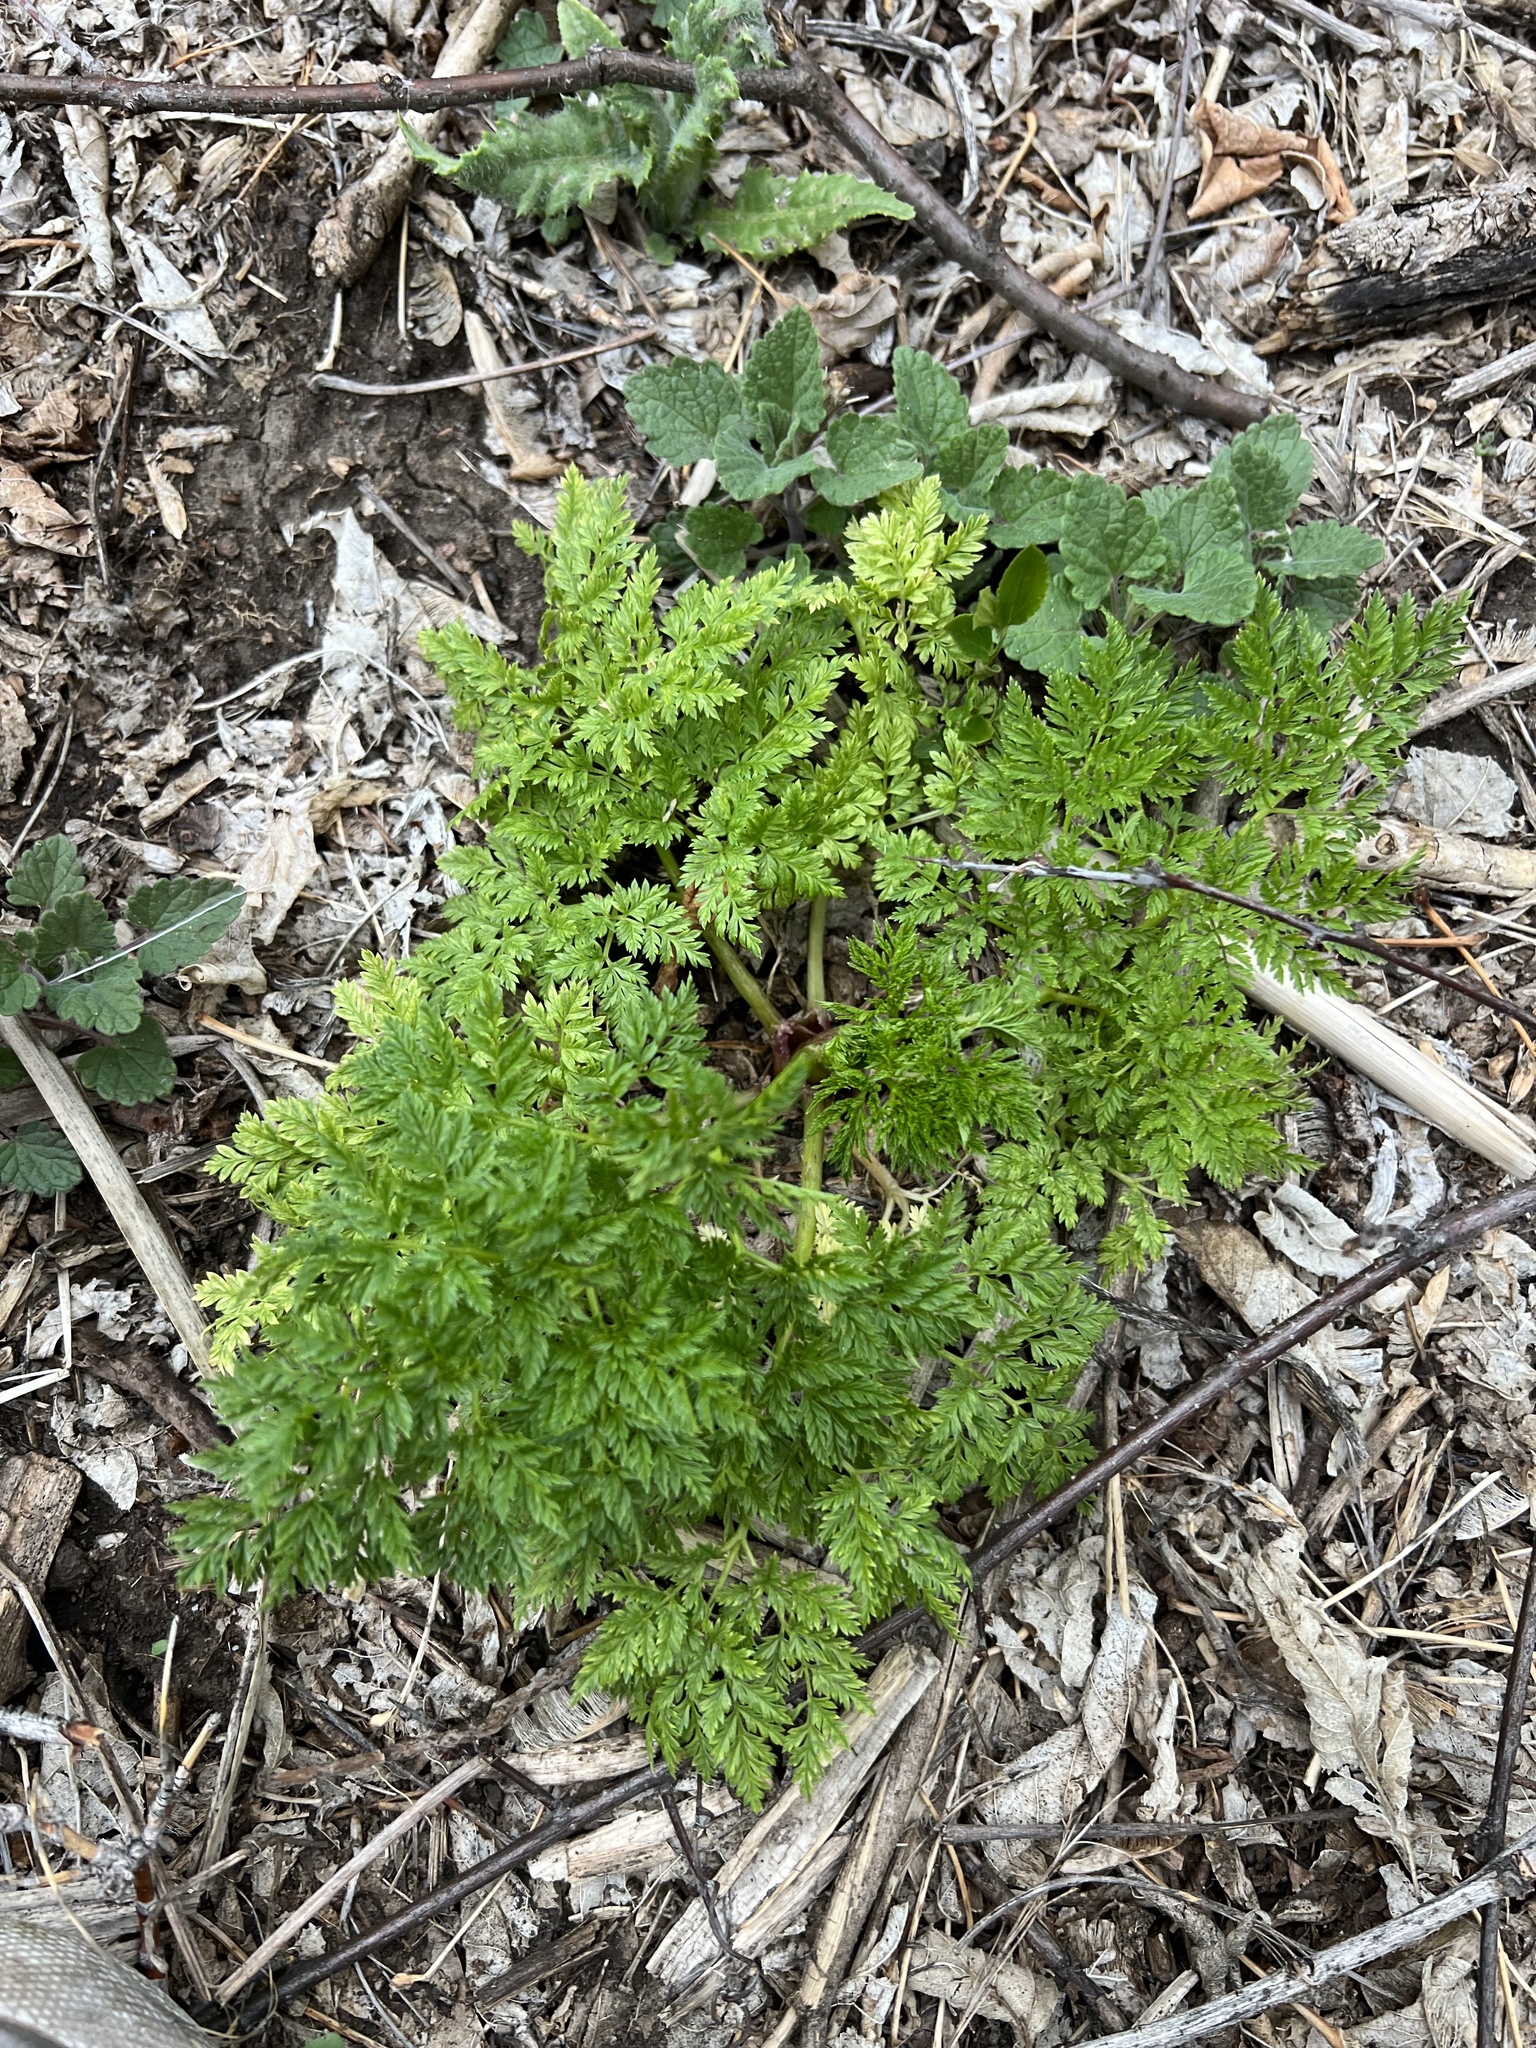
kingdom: Plantae
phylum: Tracheophyta
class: Magnoliopsida
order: Apiales
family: Apiaceae
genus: Conium
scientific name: Conium maculatum
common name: Hemlock
